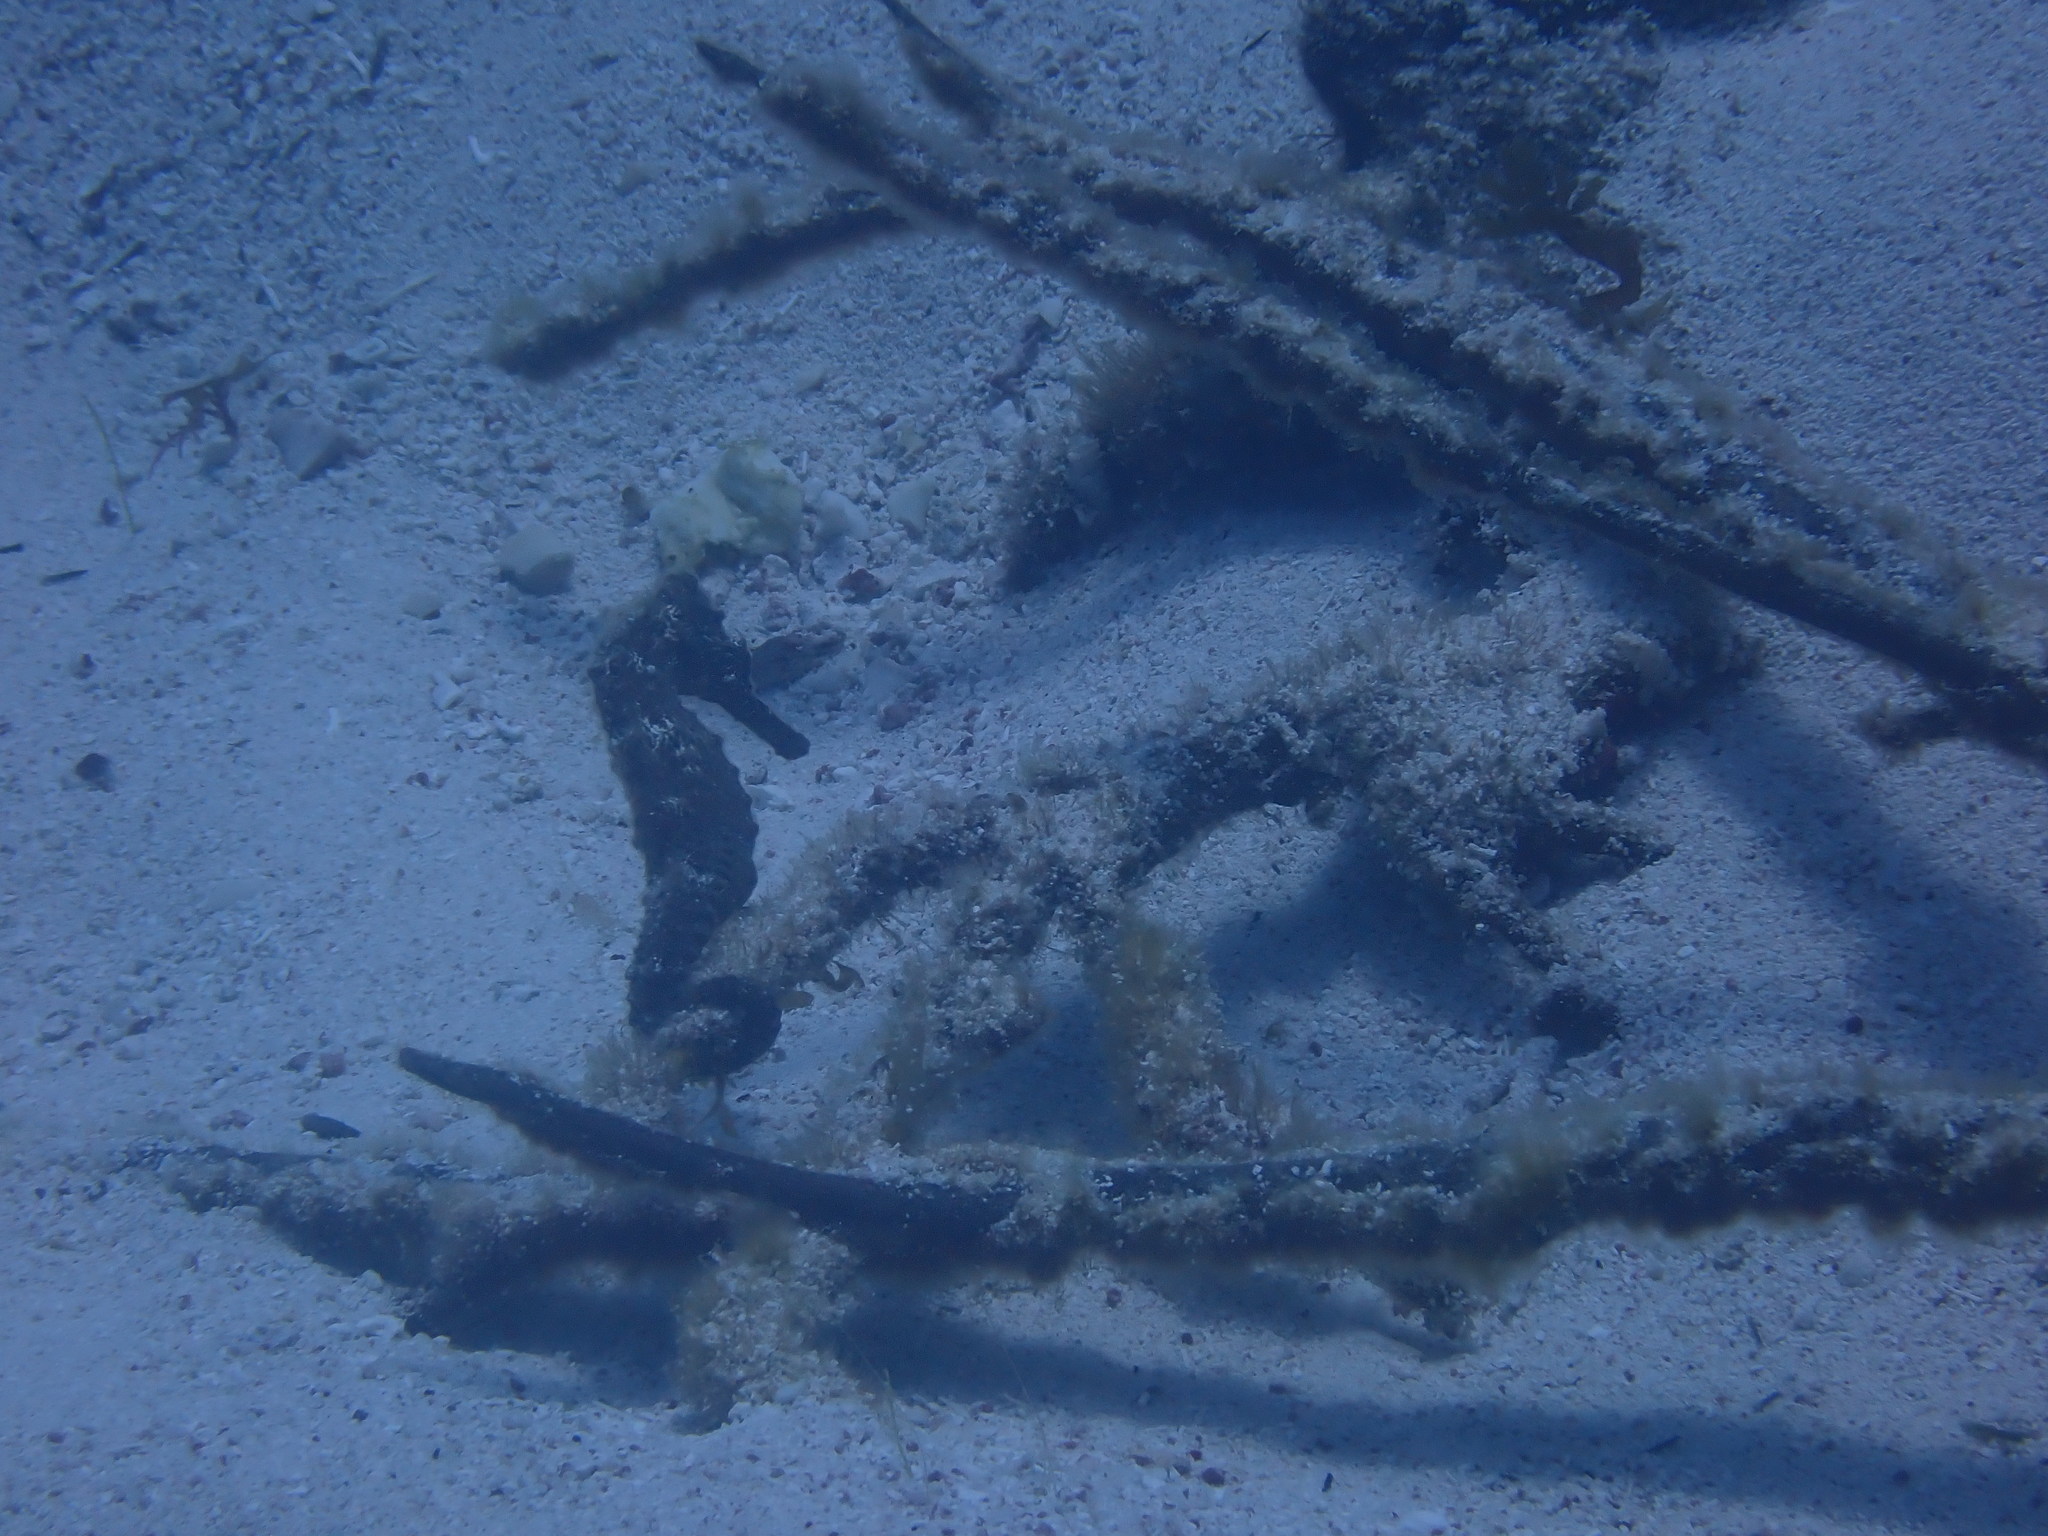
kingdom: Animalia
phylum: Chordata
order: Syngnathiformes
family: Syngnathidae
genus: Hippocampus
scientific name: Hippocampus reidi
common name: Slender seahorse
